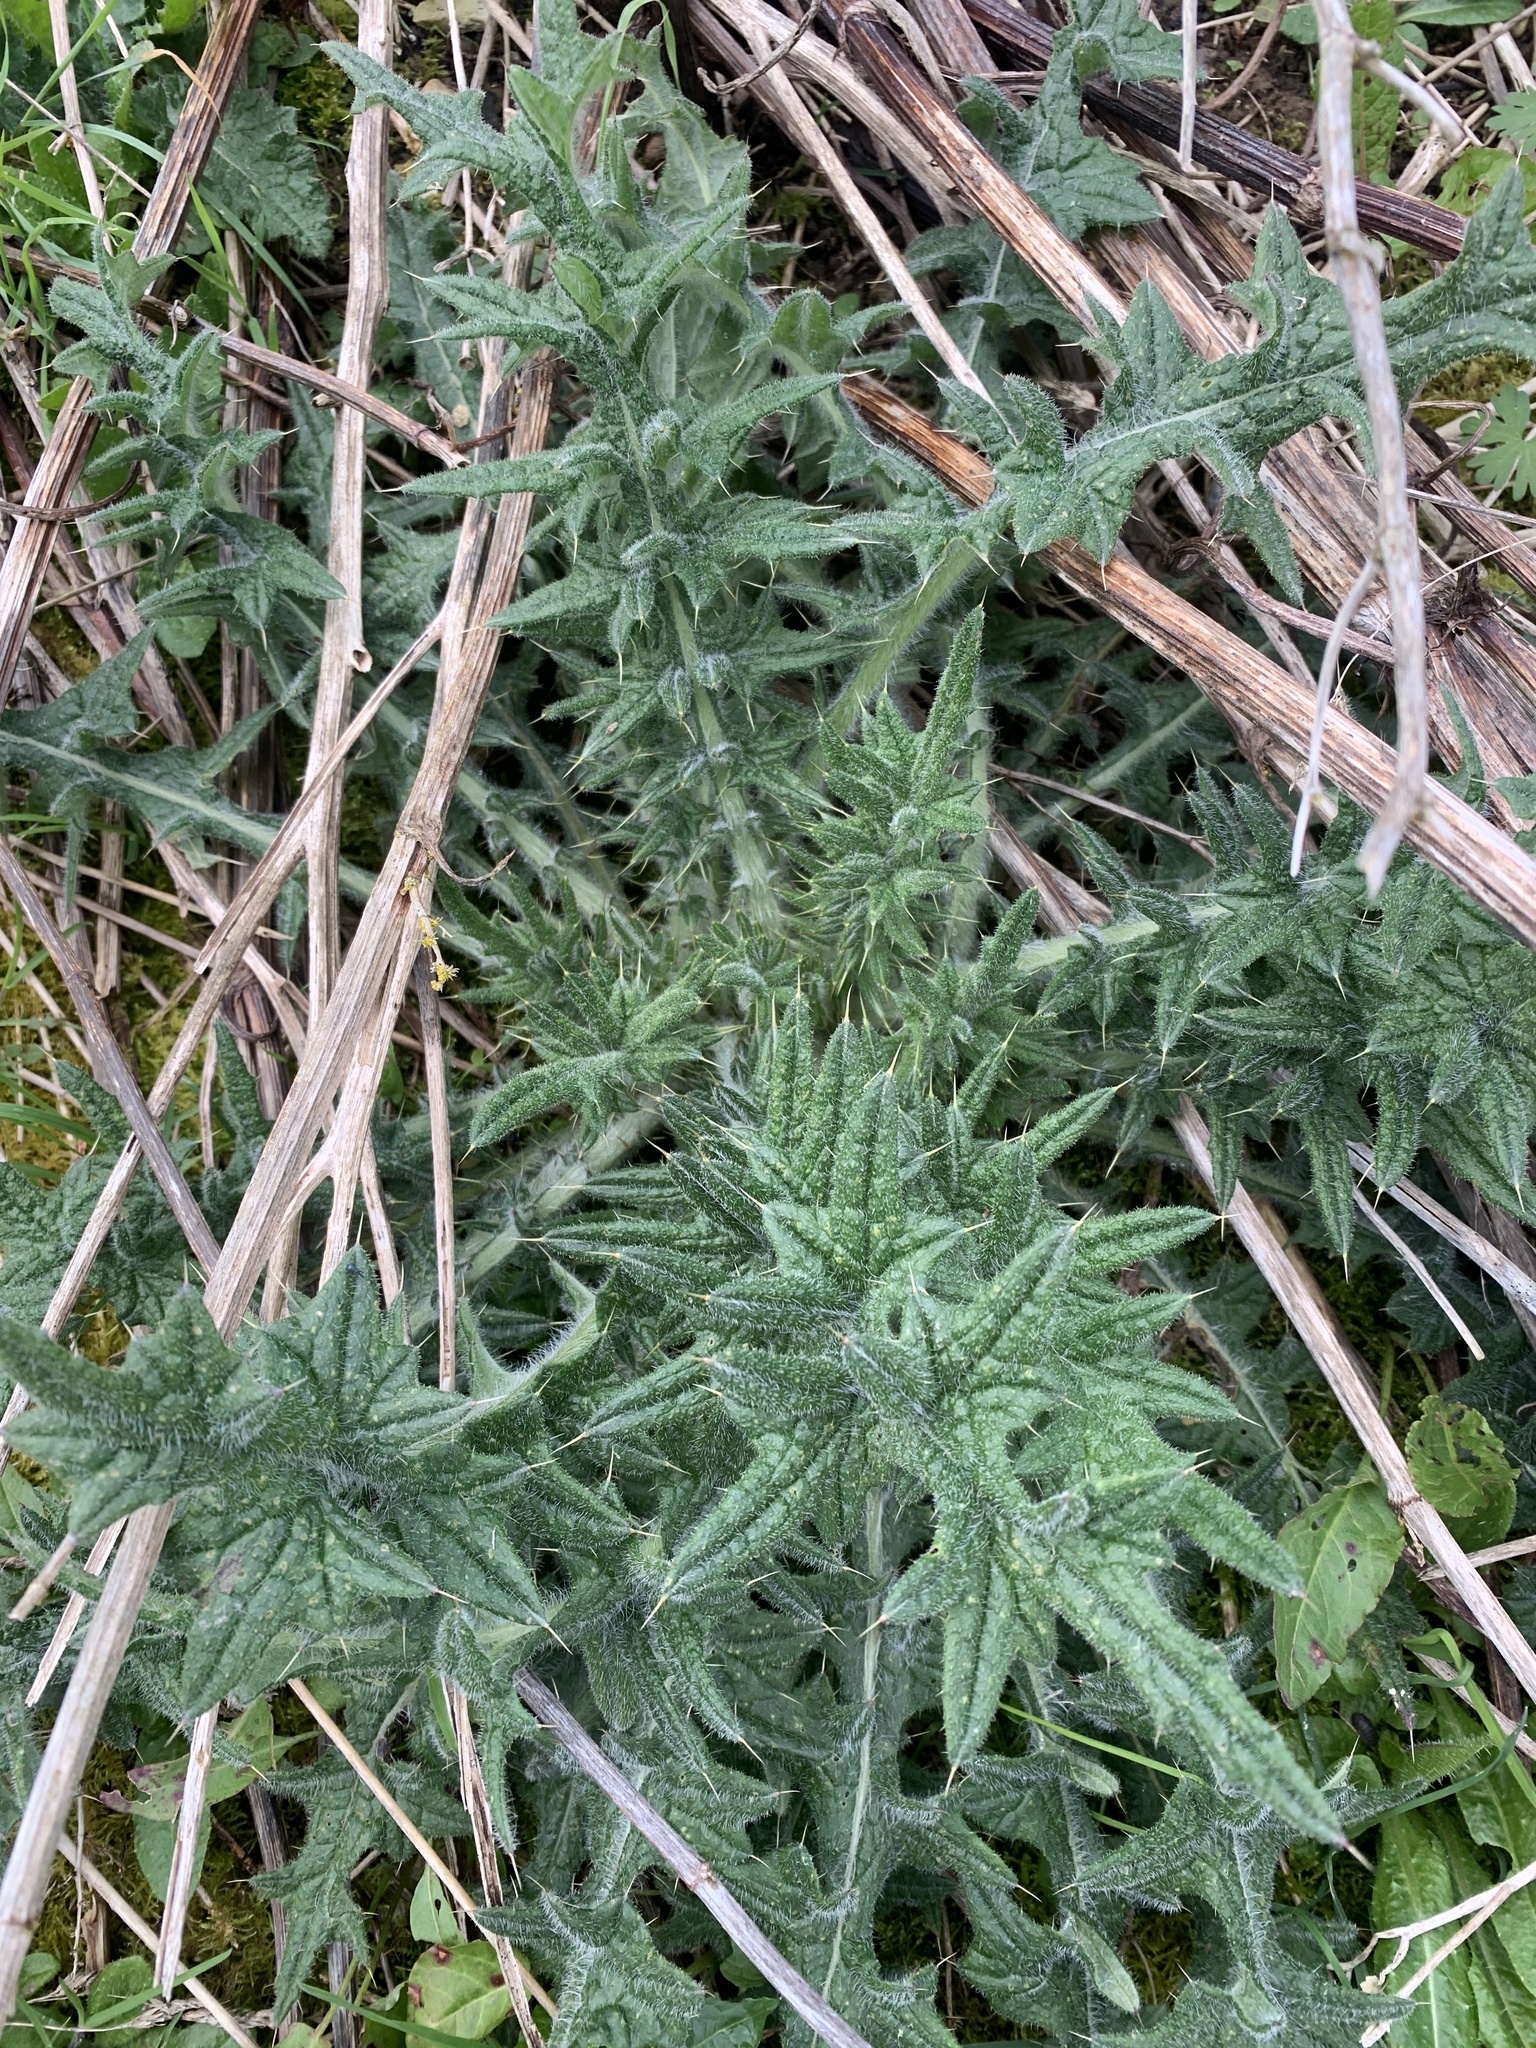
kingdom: Plantae
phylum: Tracheophyta
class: Magnoliopsida
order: Asterales
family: Asteraceae
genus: Cirsium
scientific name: Cirsium vulgare
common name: Bull thistle
